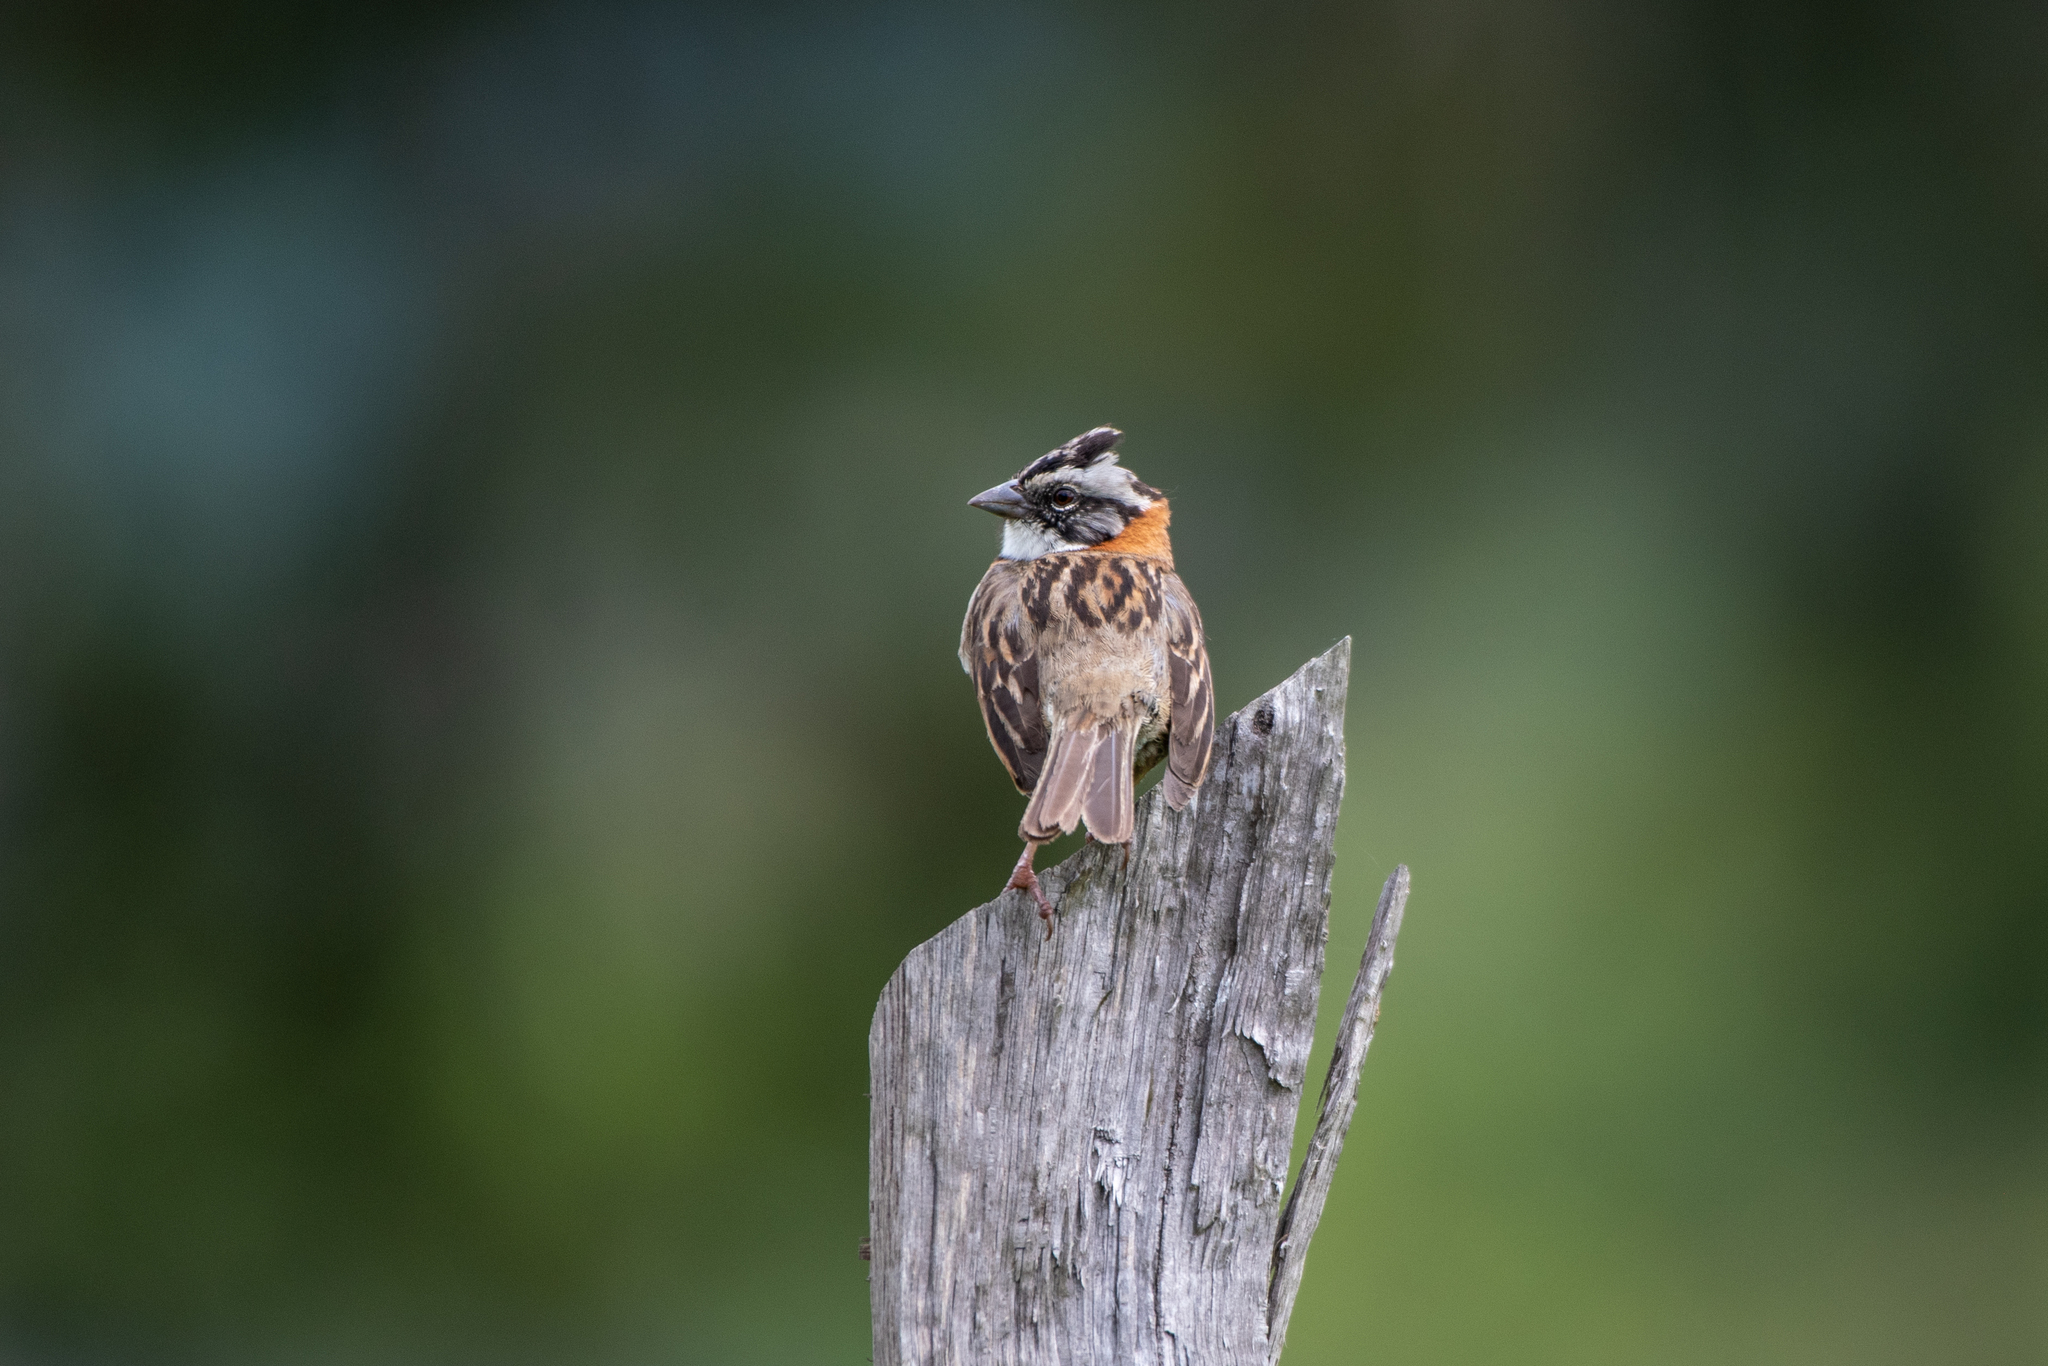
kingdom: Animalia
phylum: Chordata
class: Aves
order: Passeriformes
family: Passerellidae
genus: Zonotrichia
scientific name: Zonotrichia capensis
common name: Rufous-collared sparrow
